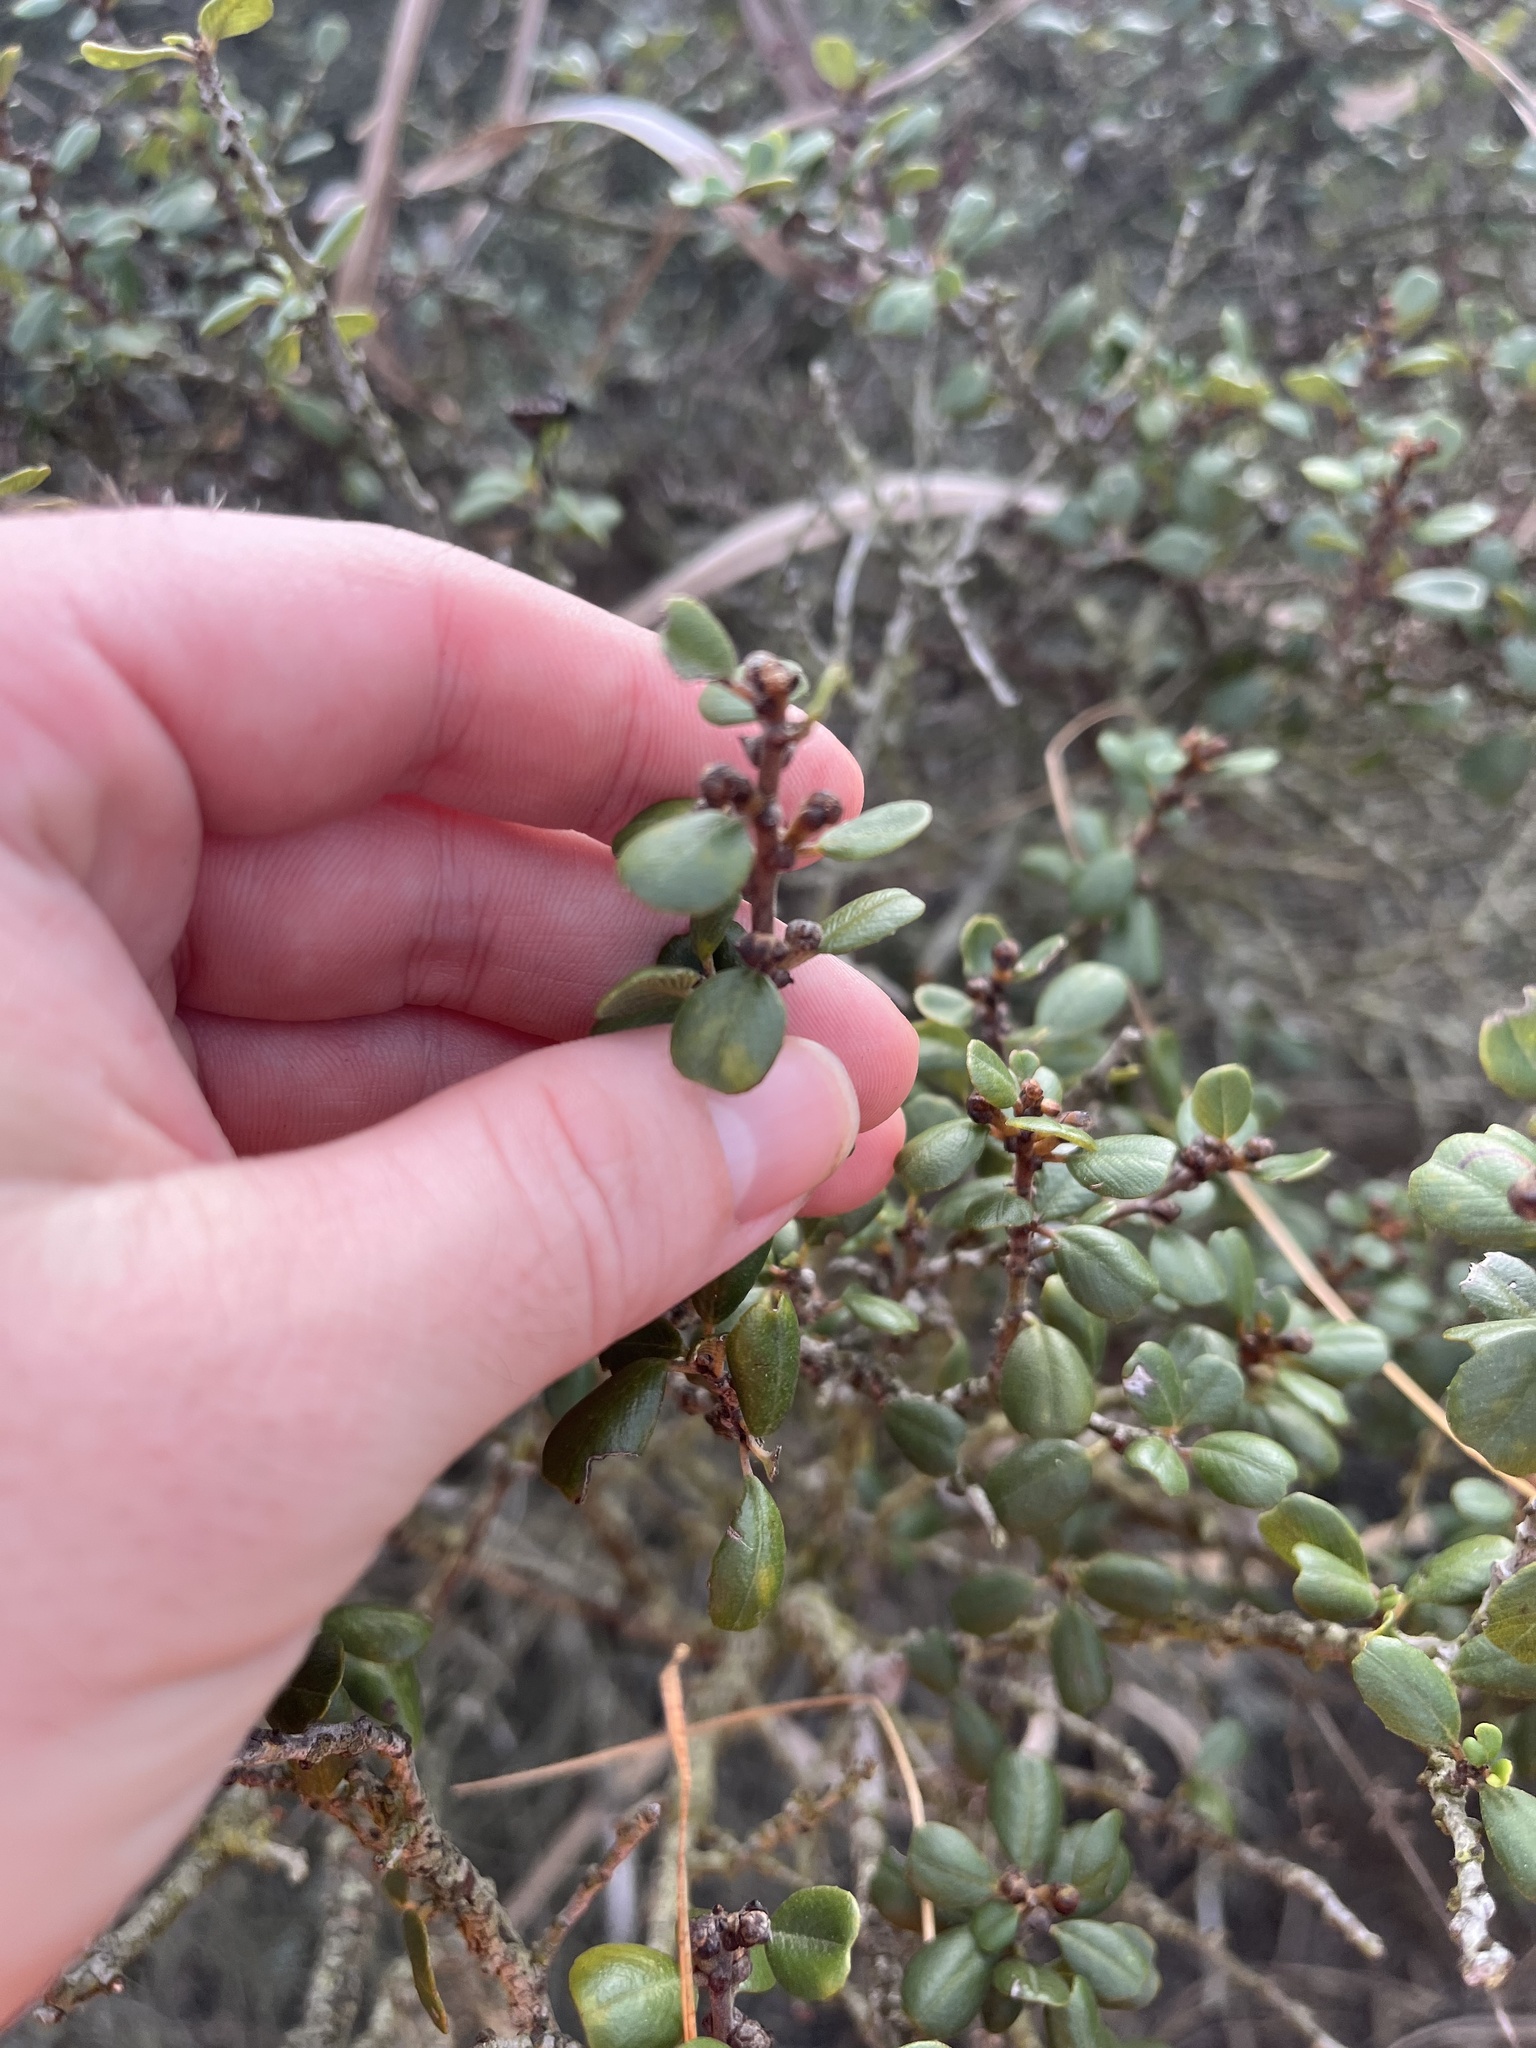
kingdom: Plantae
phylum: Tracheophyta
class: Magnoliopsida
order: Rosales
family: Rhamnaceae
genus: Ceanothus
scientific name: Ceanothus verrucosus
